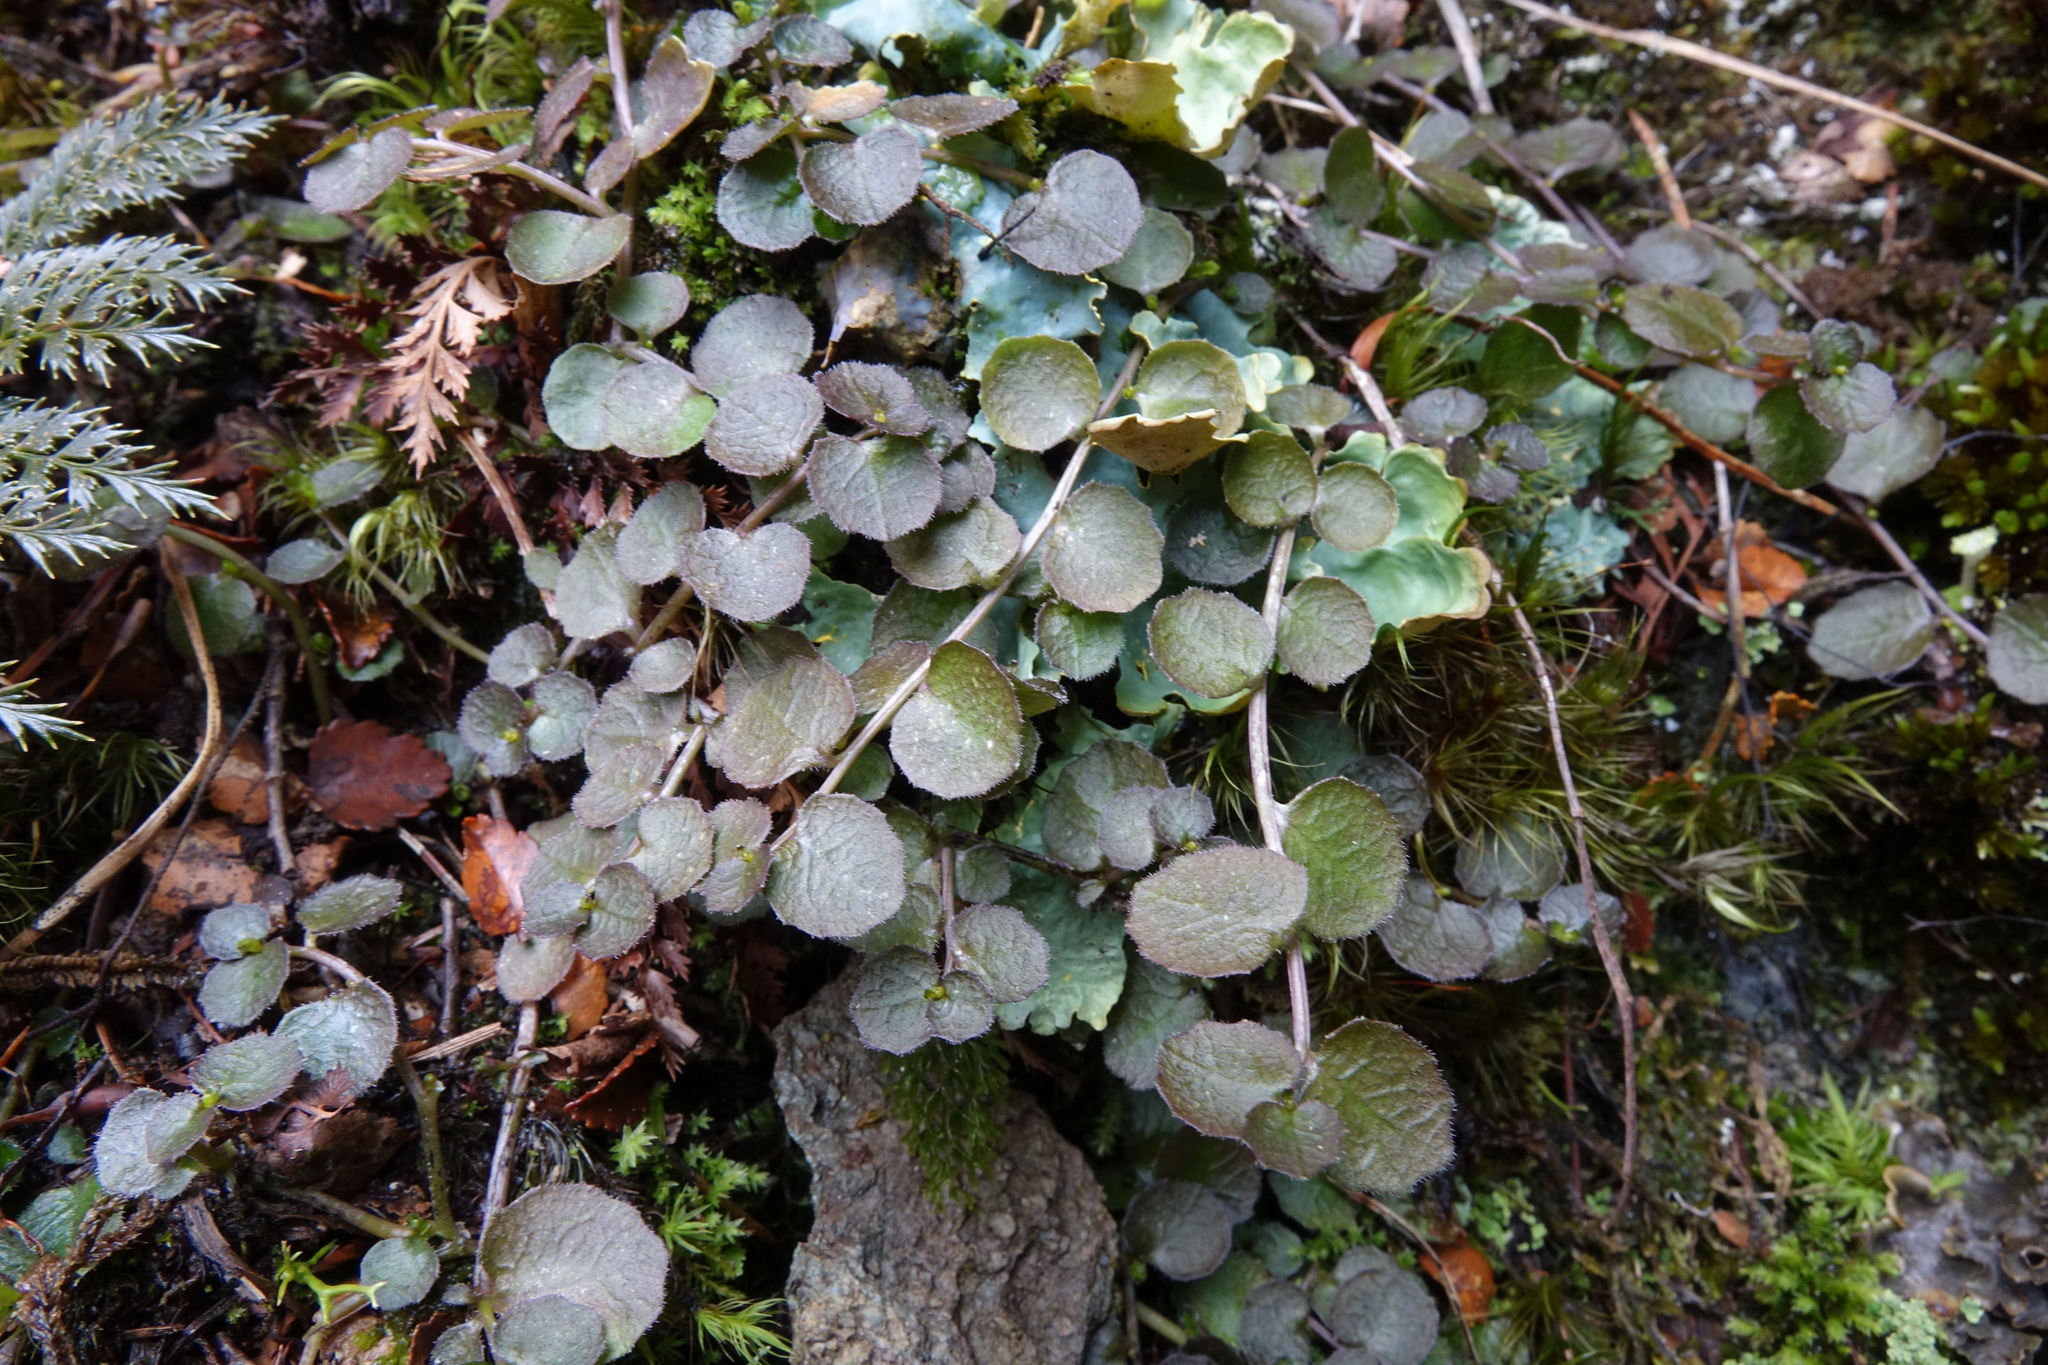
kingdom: Plantae
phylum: Tracheophyta
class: Magnoliopsida
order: Asterales
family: Campanulaceae
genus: Lobelia
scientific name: Lobelia angulata
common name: Lawn lobelia
